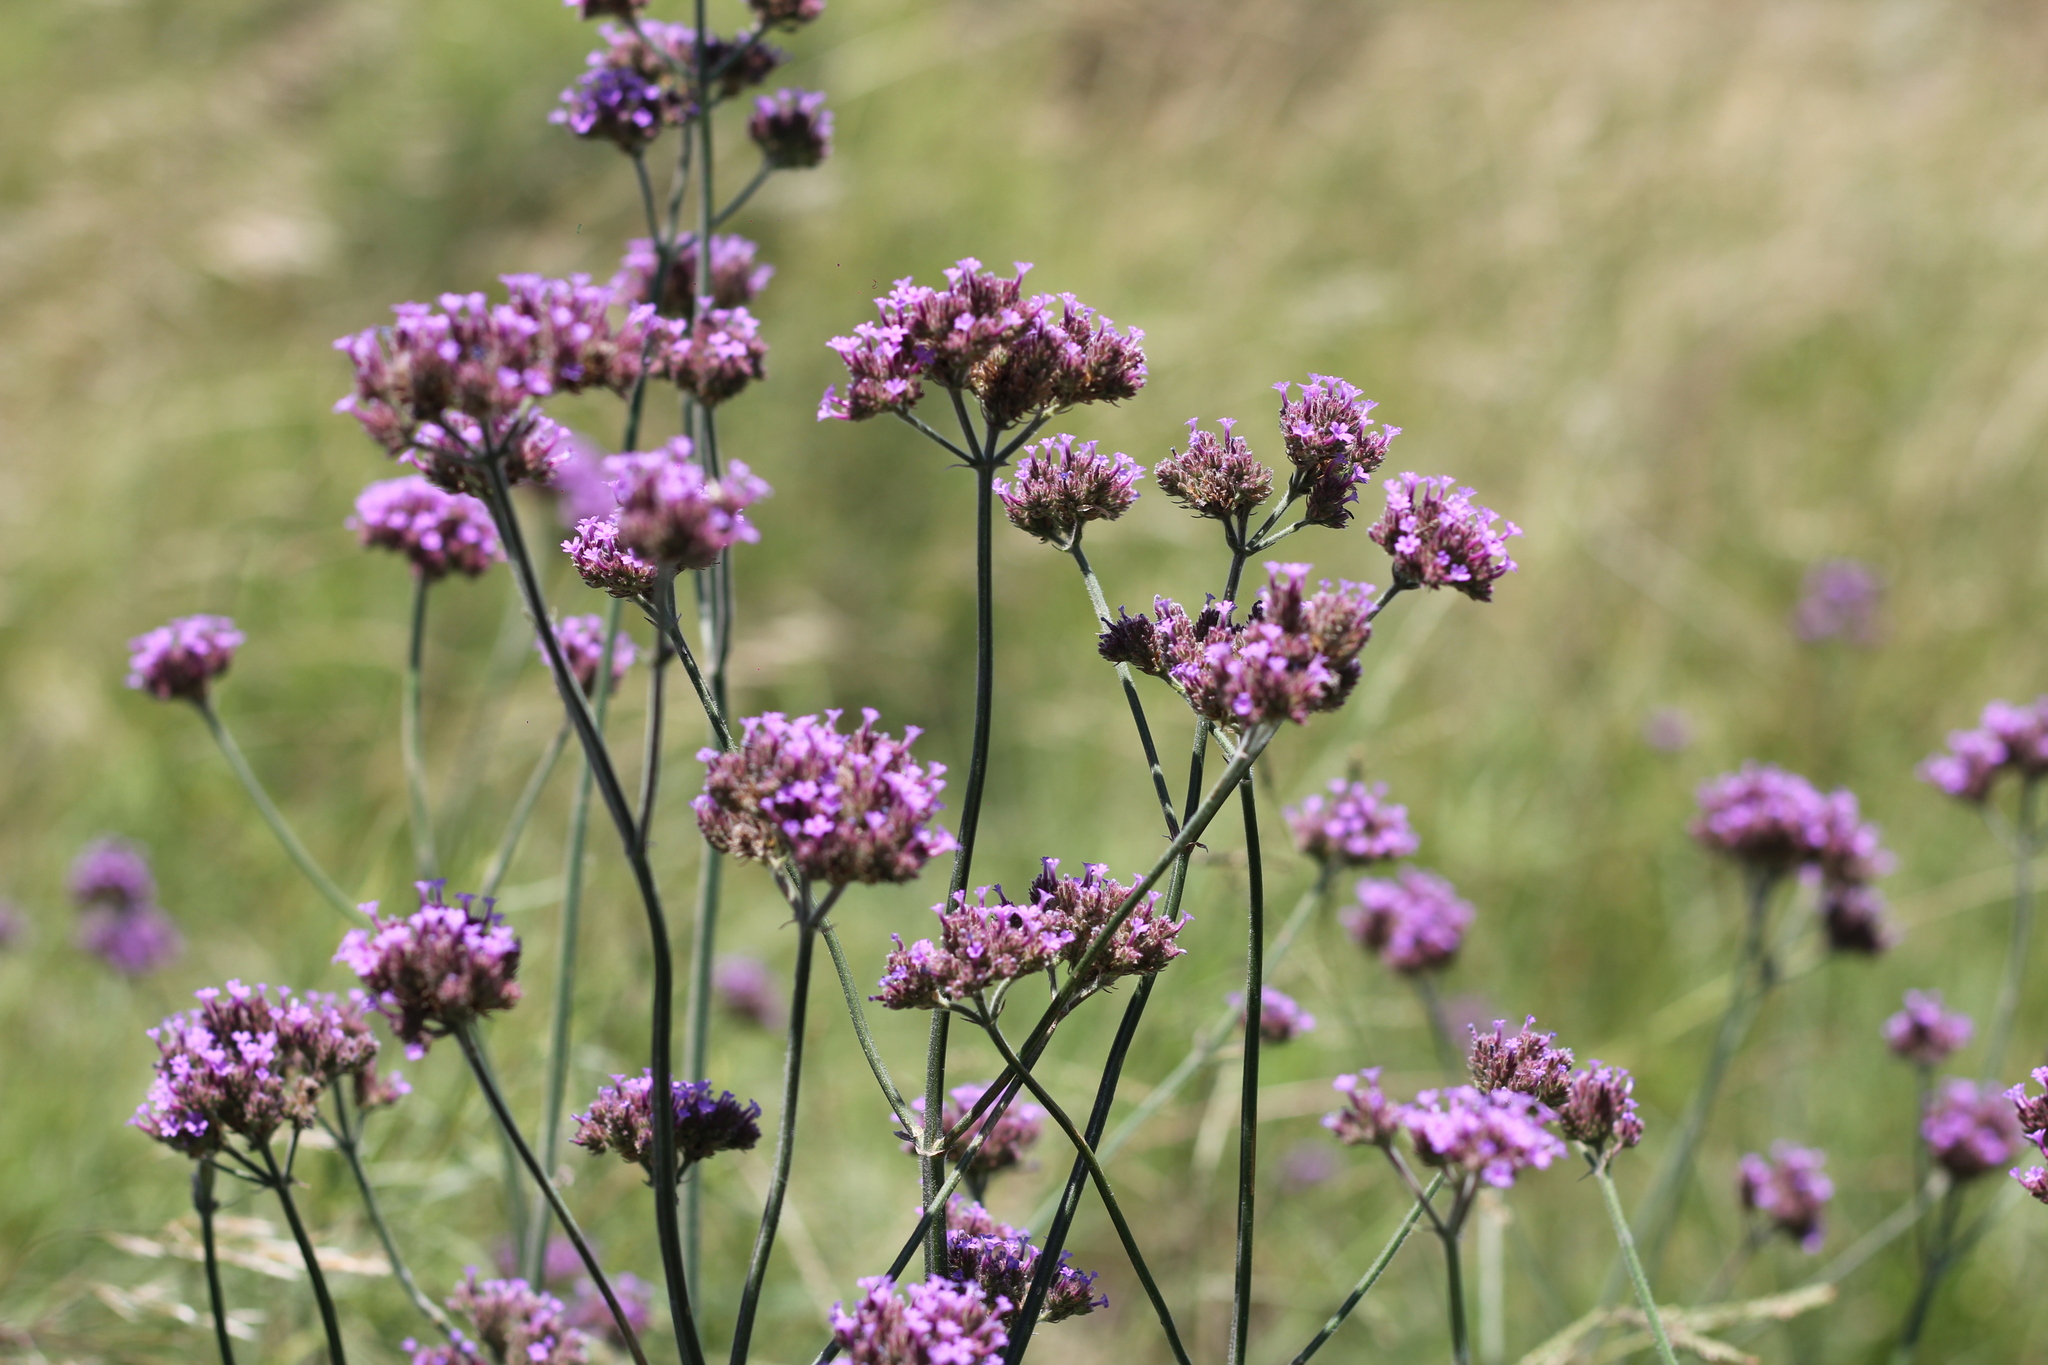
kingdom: Plantae
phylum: Tracheophyta
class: Magnoliopsida
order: Lamiales
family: Verbenaceae
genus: Verbena
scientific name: Verbena bonariensis
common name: Purpletop vervain
